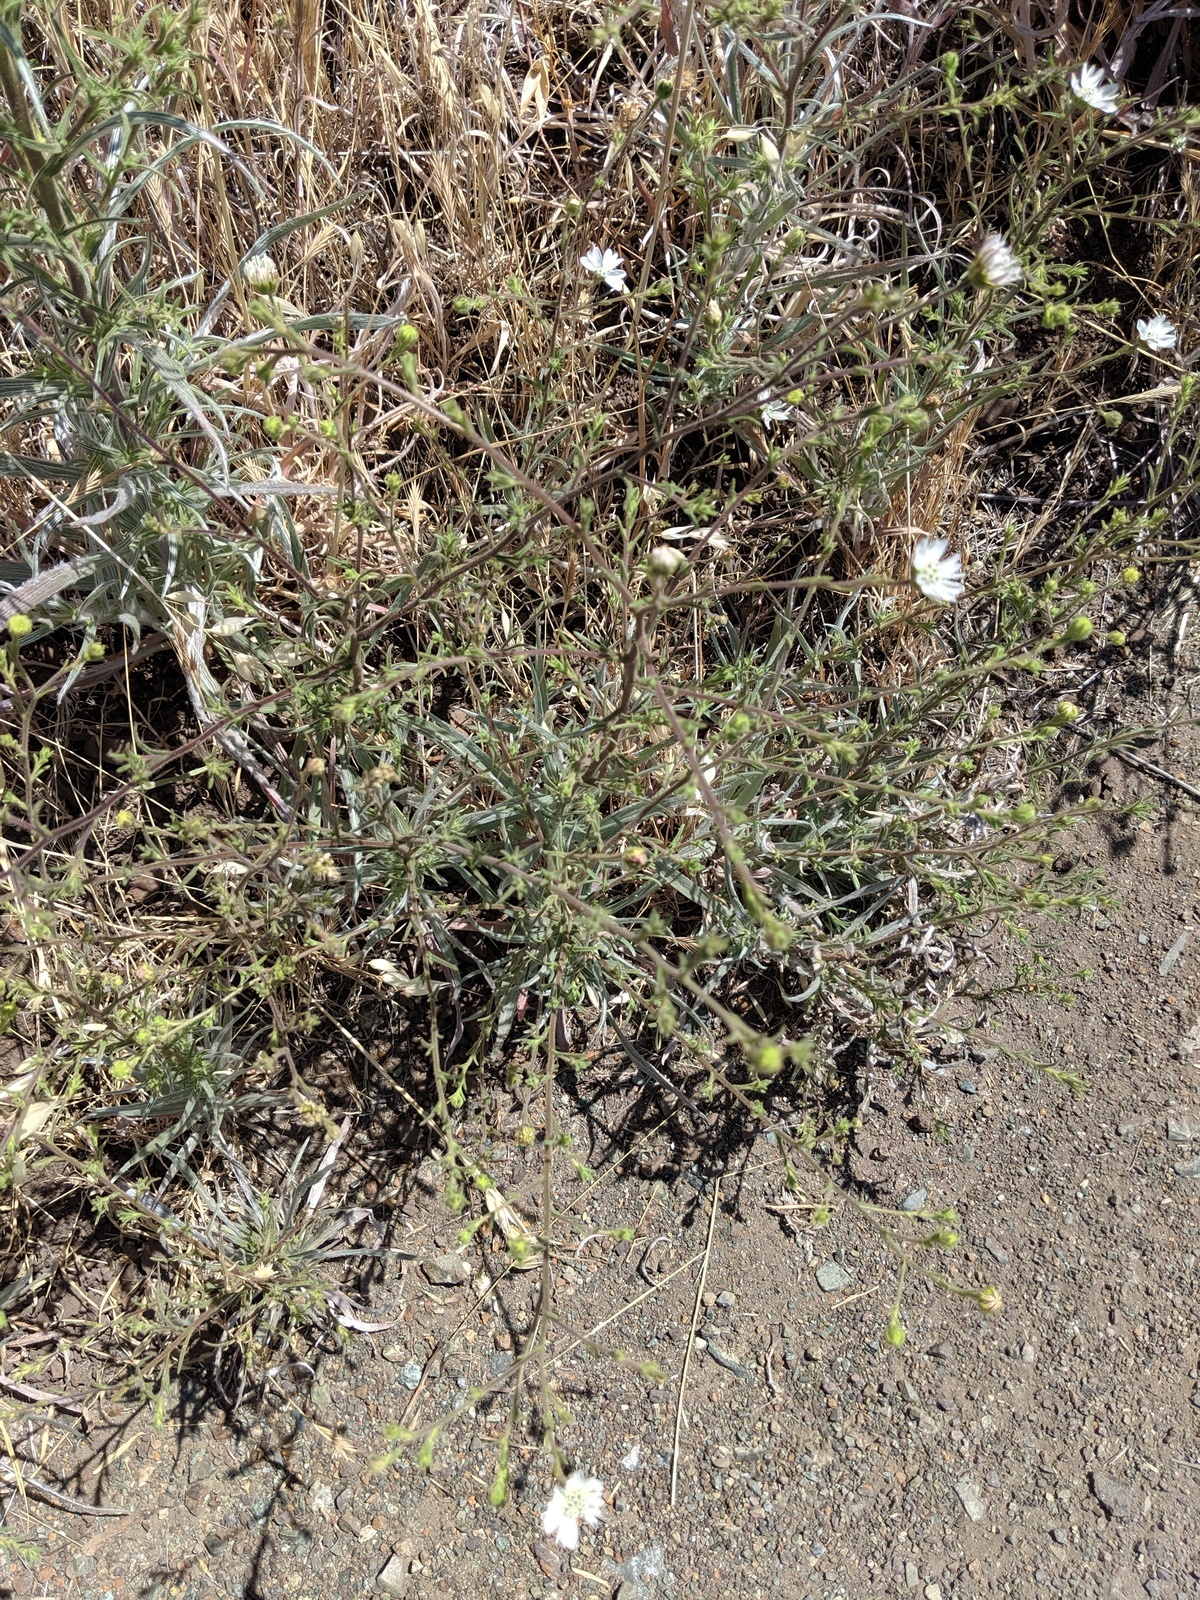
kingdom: Plantae
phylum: Tracheophyta
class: Magnoliopsida
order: Asterales
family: Asteraceae
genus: Hemizonia
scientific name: Hemizonia congesta
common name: Hayfield tarweed
